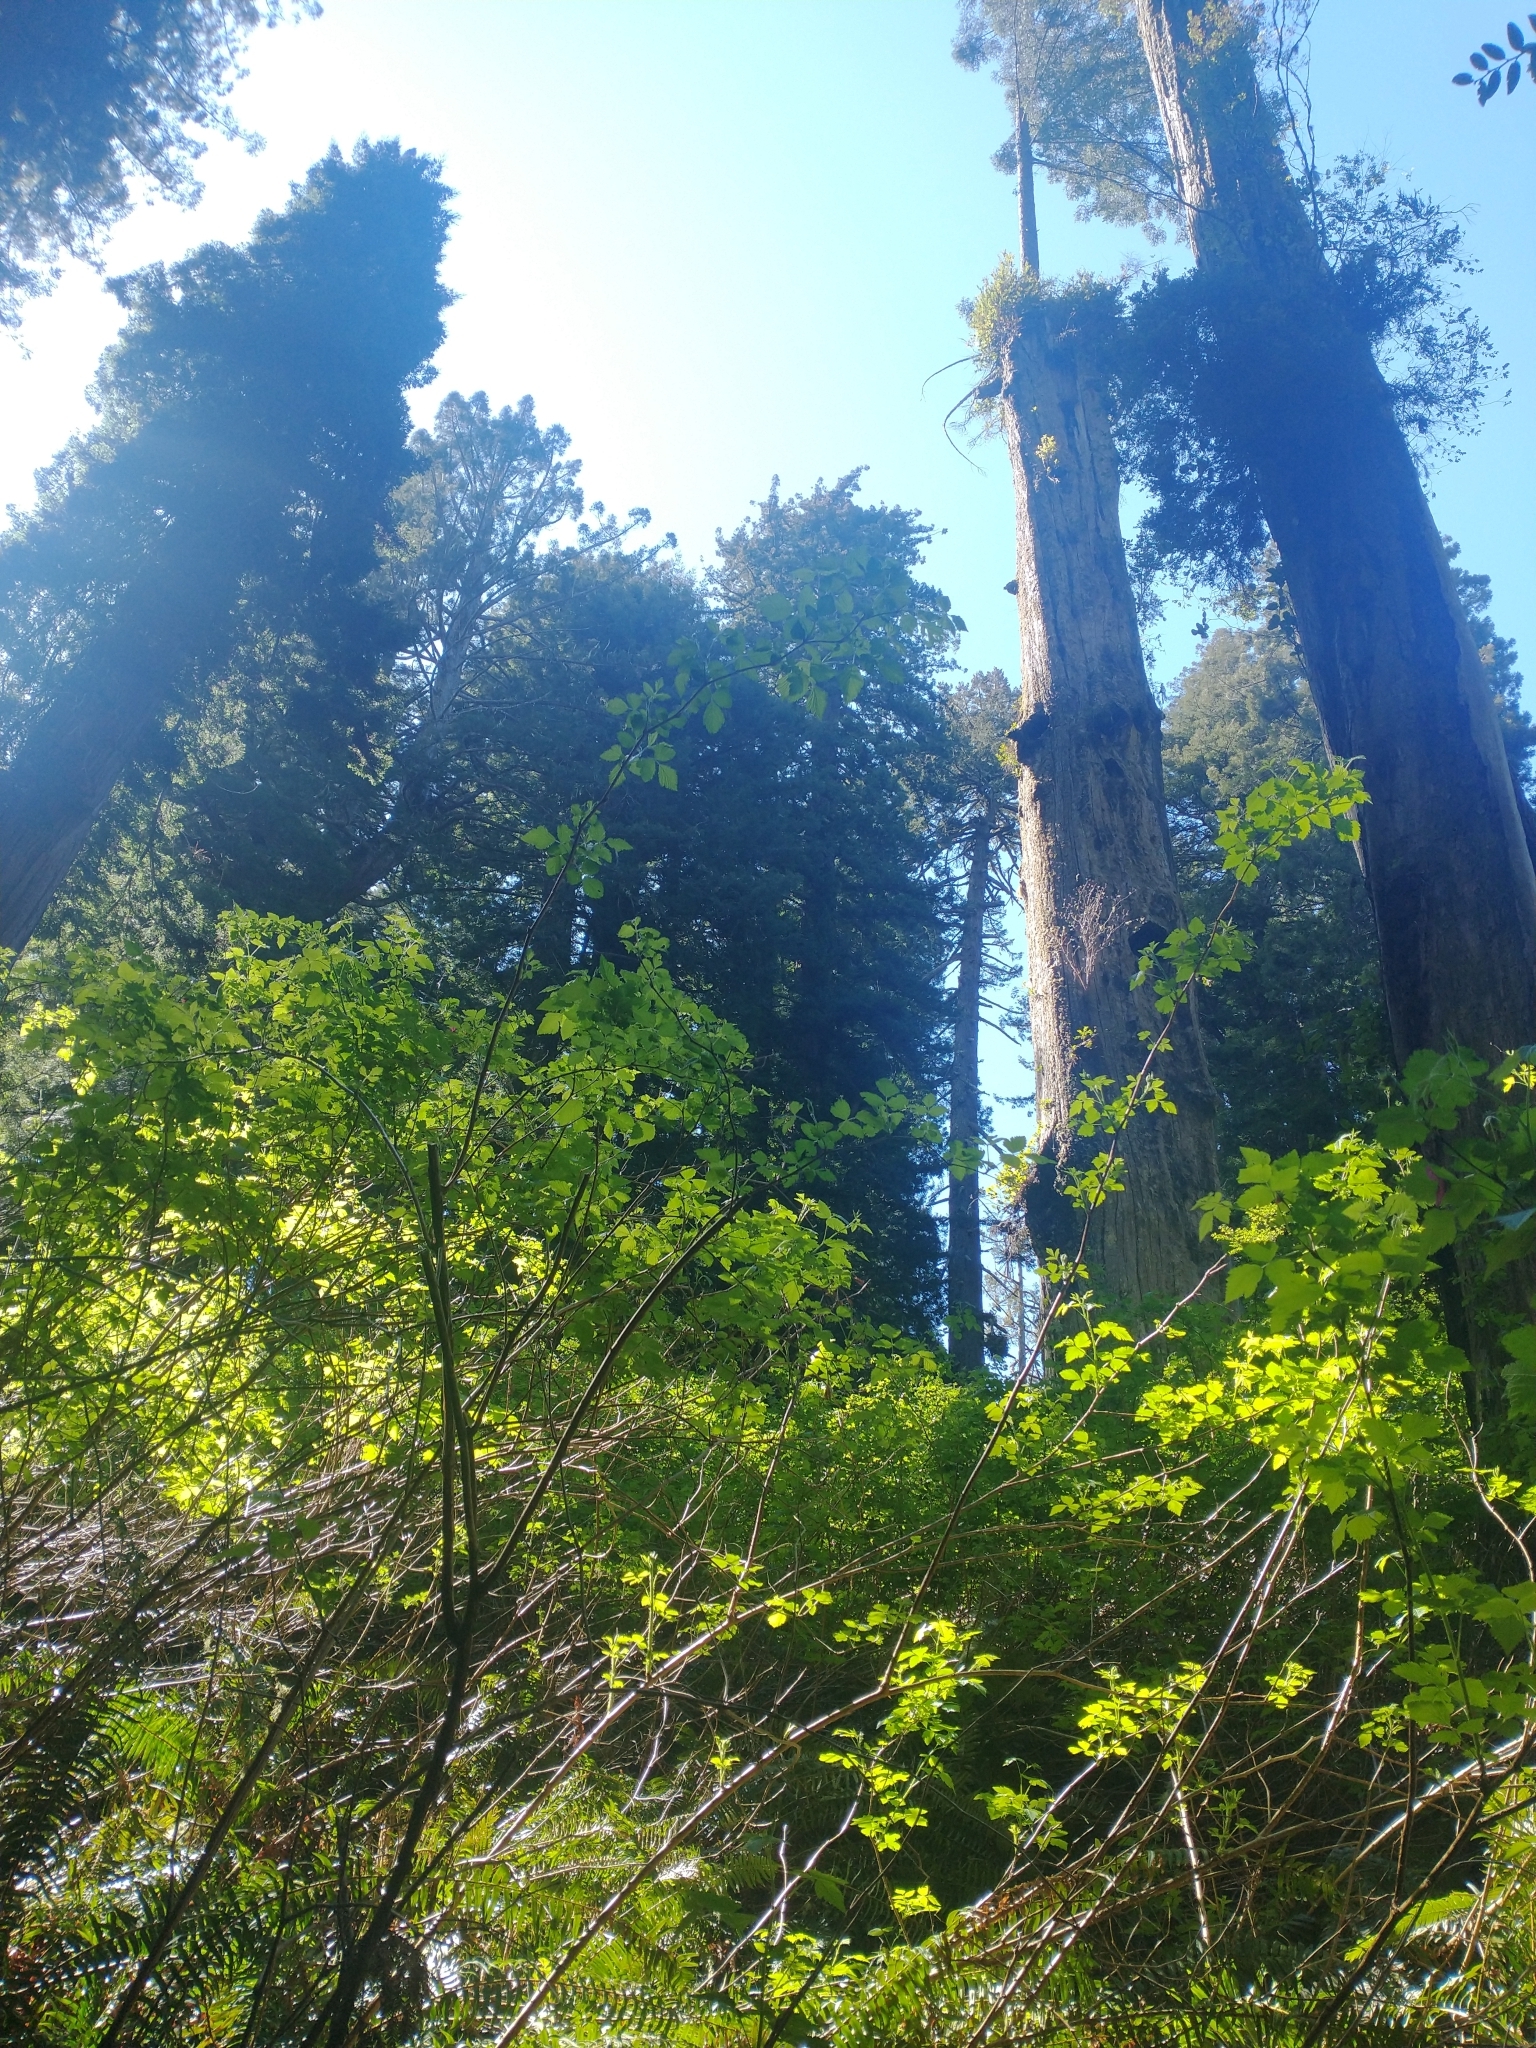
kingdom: Plantae
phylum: Tracheophyta
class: Magnoliopsida
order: Rosales
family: Rosaceae
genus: Rubus
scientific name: Rubus spectabilis
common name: Salmonberry
